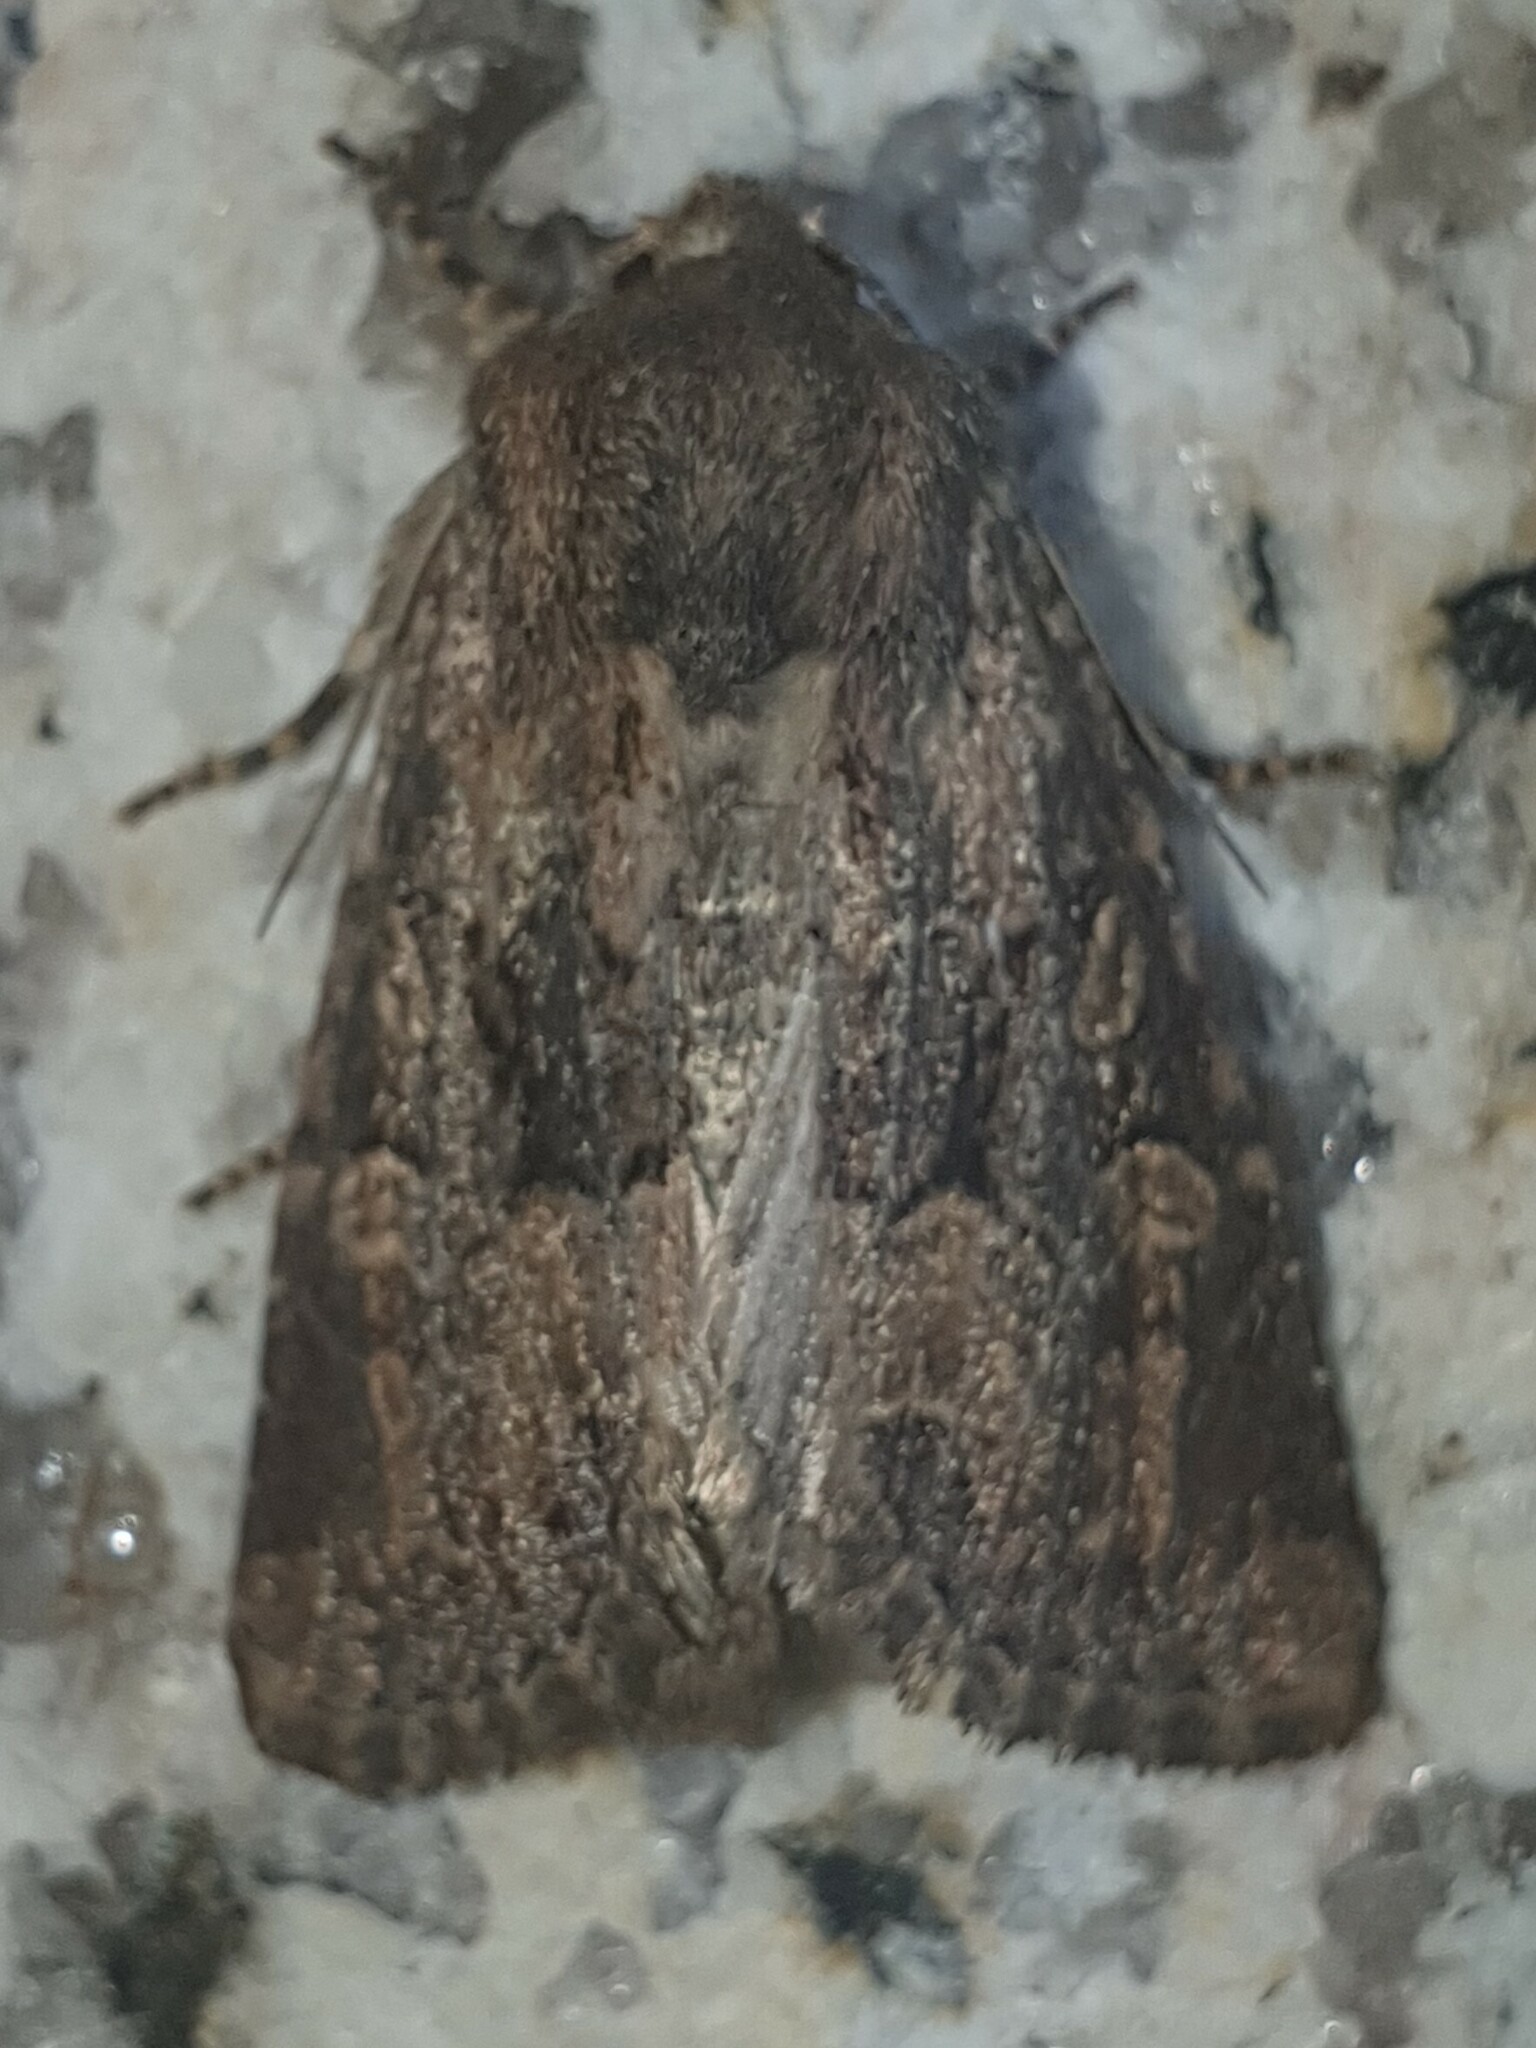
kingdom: Animalia
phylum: Arthropoda
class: Insecta
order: Lepidoptera
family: Noctuidae
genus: Luperina
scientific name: Luperina testacea
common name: Flounced rustic
